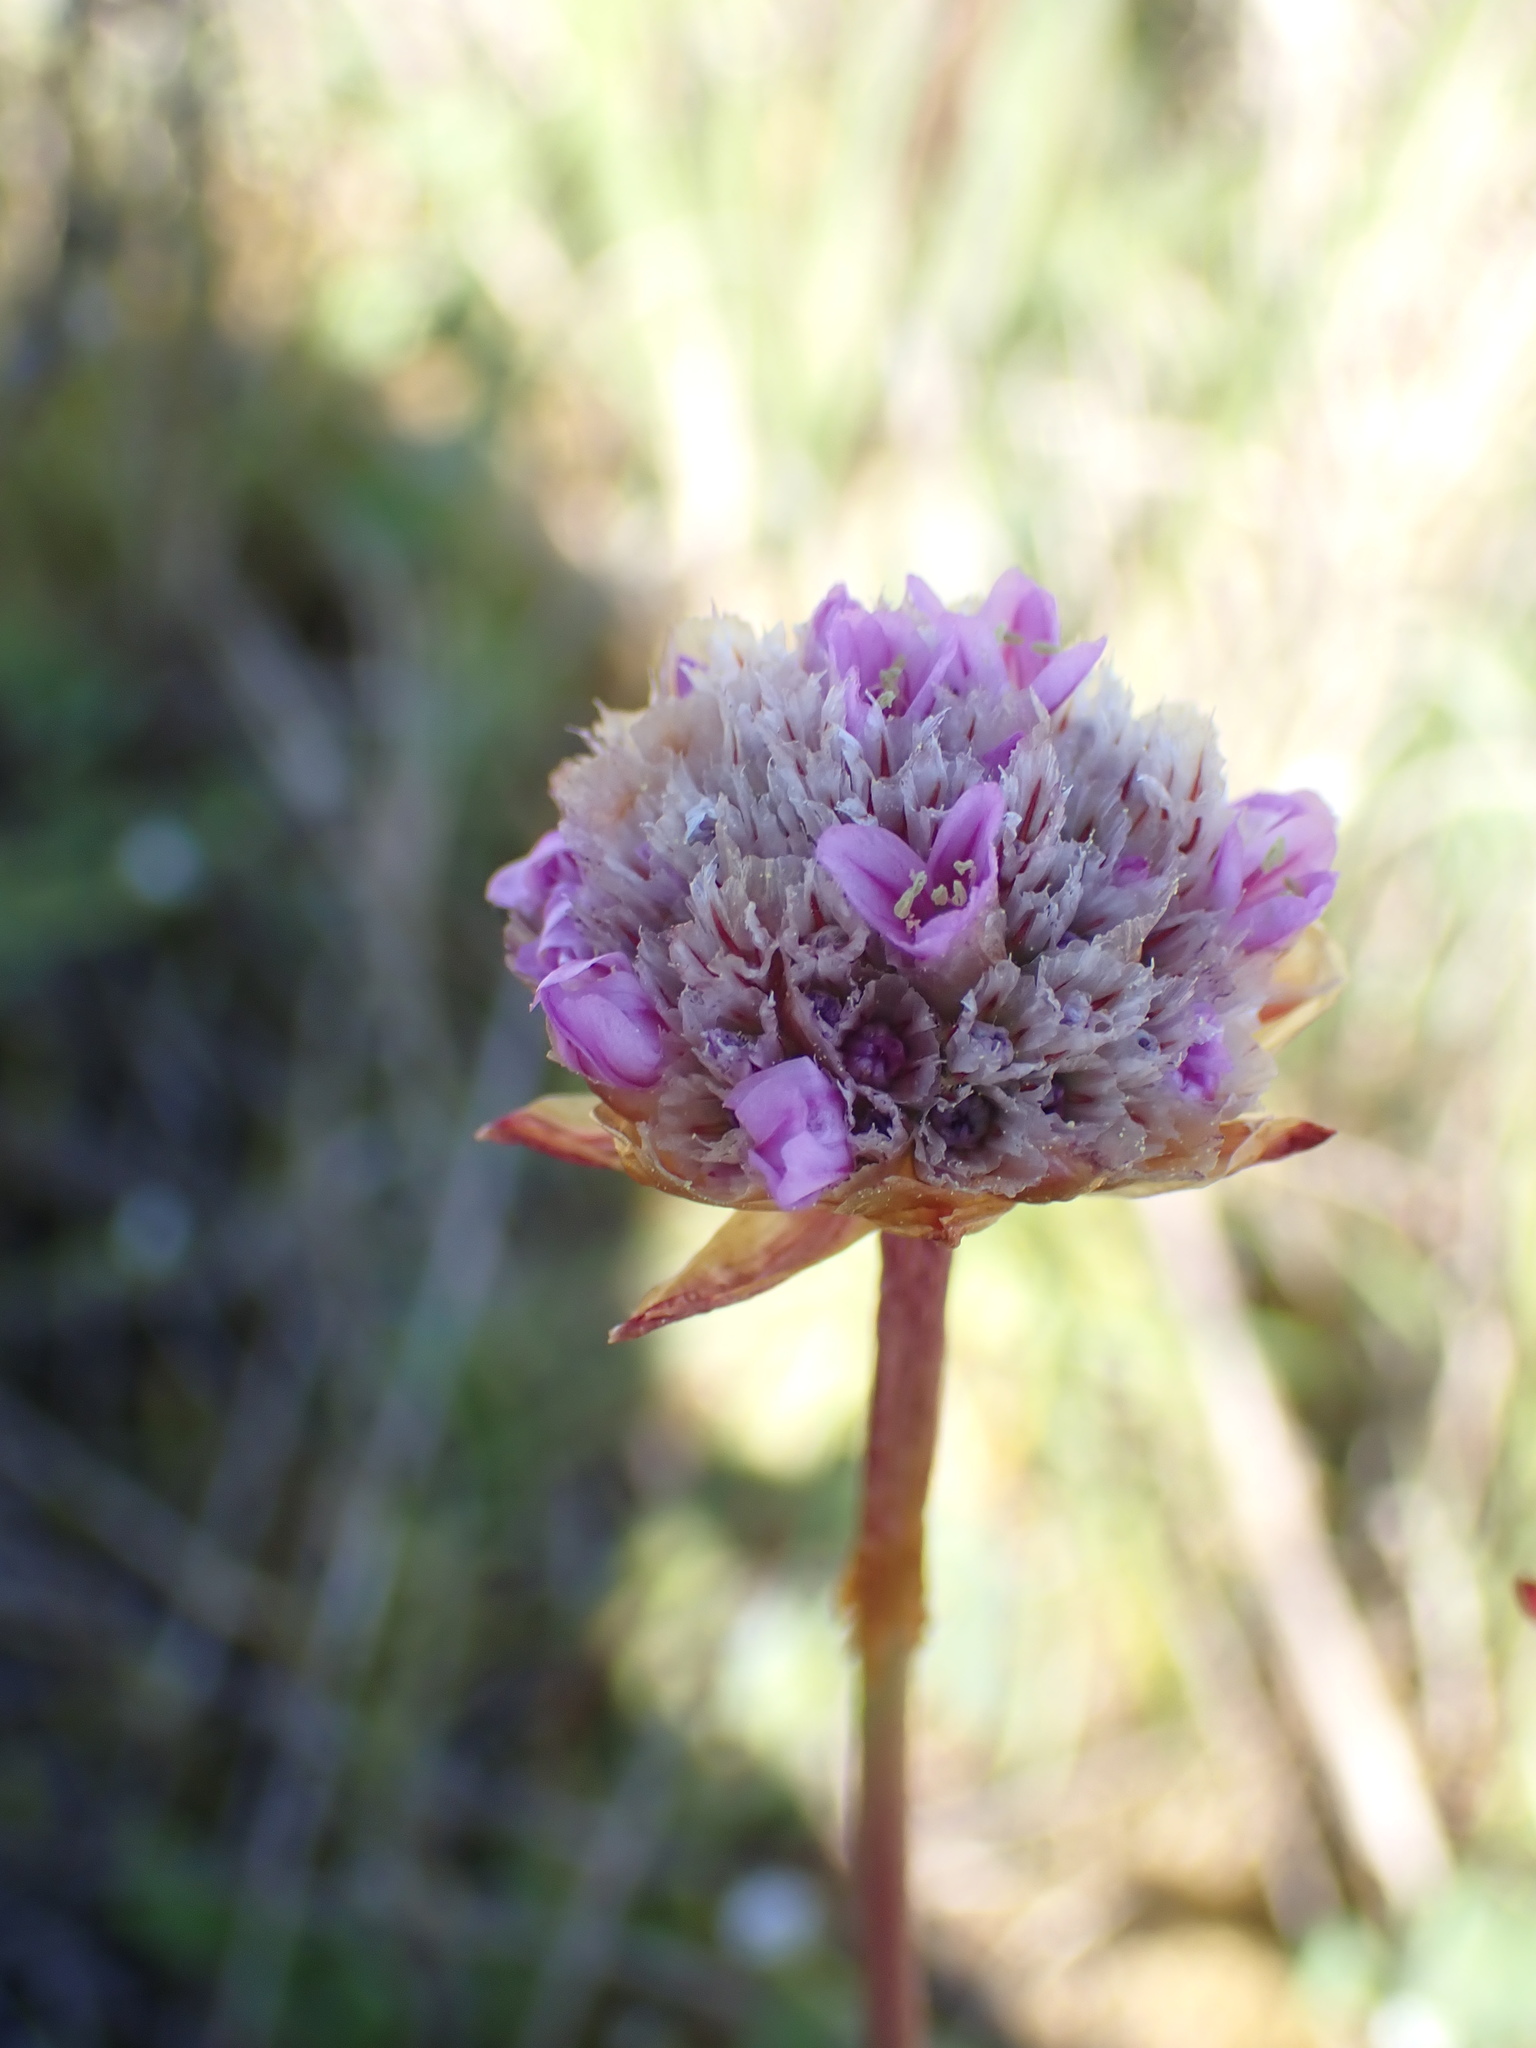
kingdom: Plantae
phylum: Tracheophyta
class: Magnoliopsida
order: Caryophyllales
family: Plumbaginaceae
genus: Armeria
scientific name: Armeria maritima
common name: Thrift
